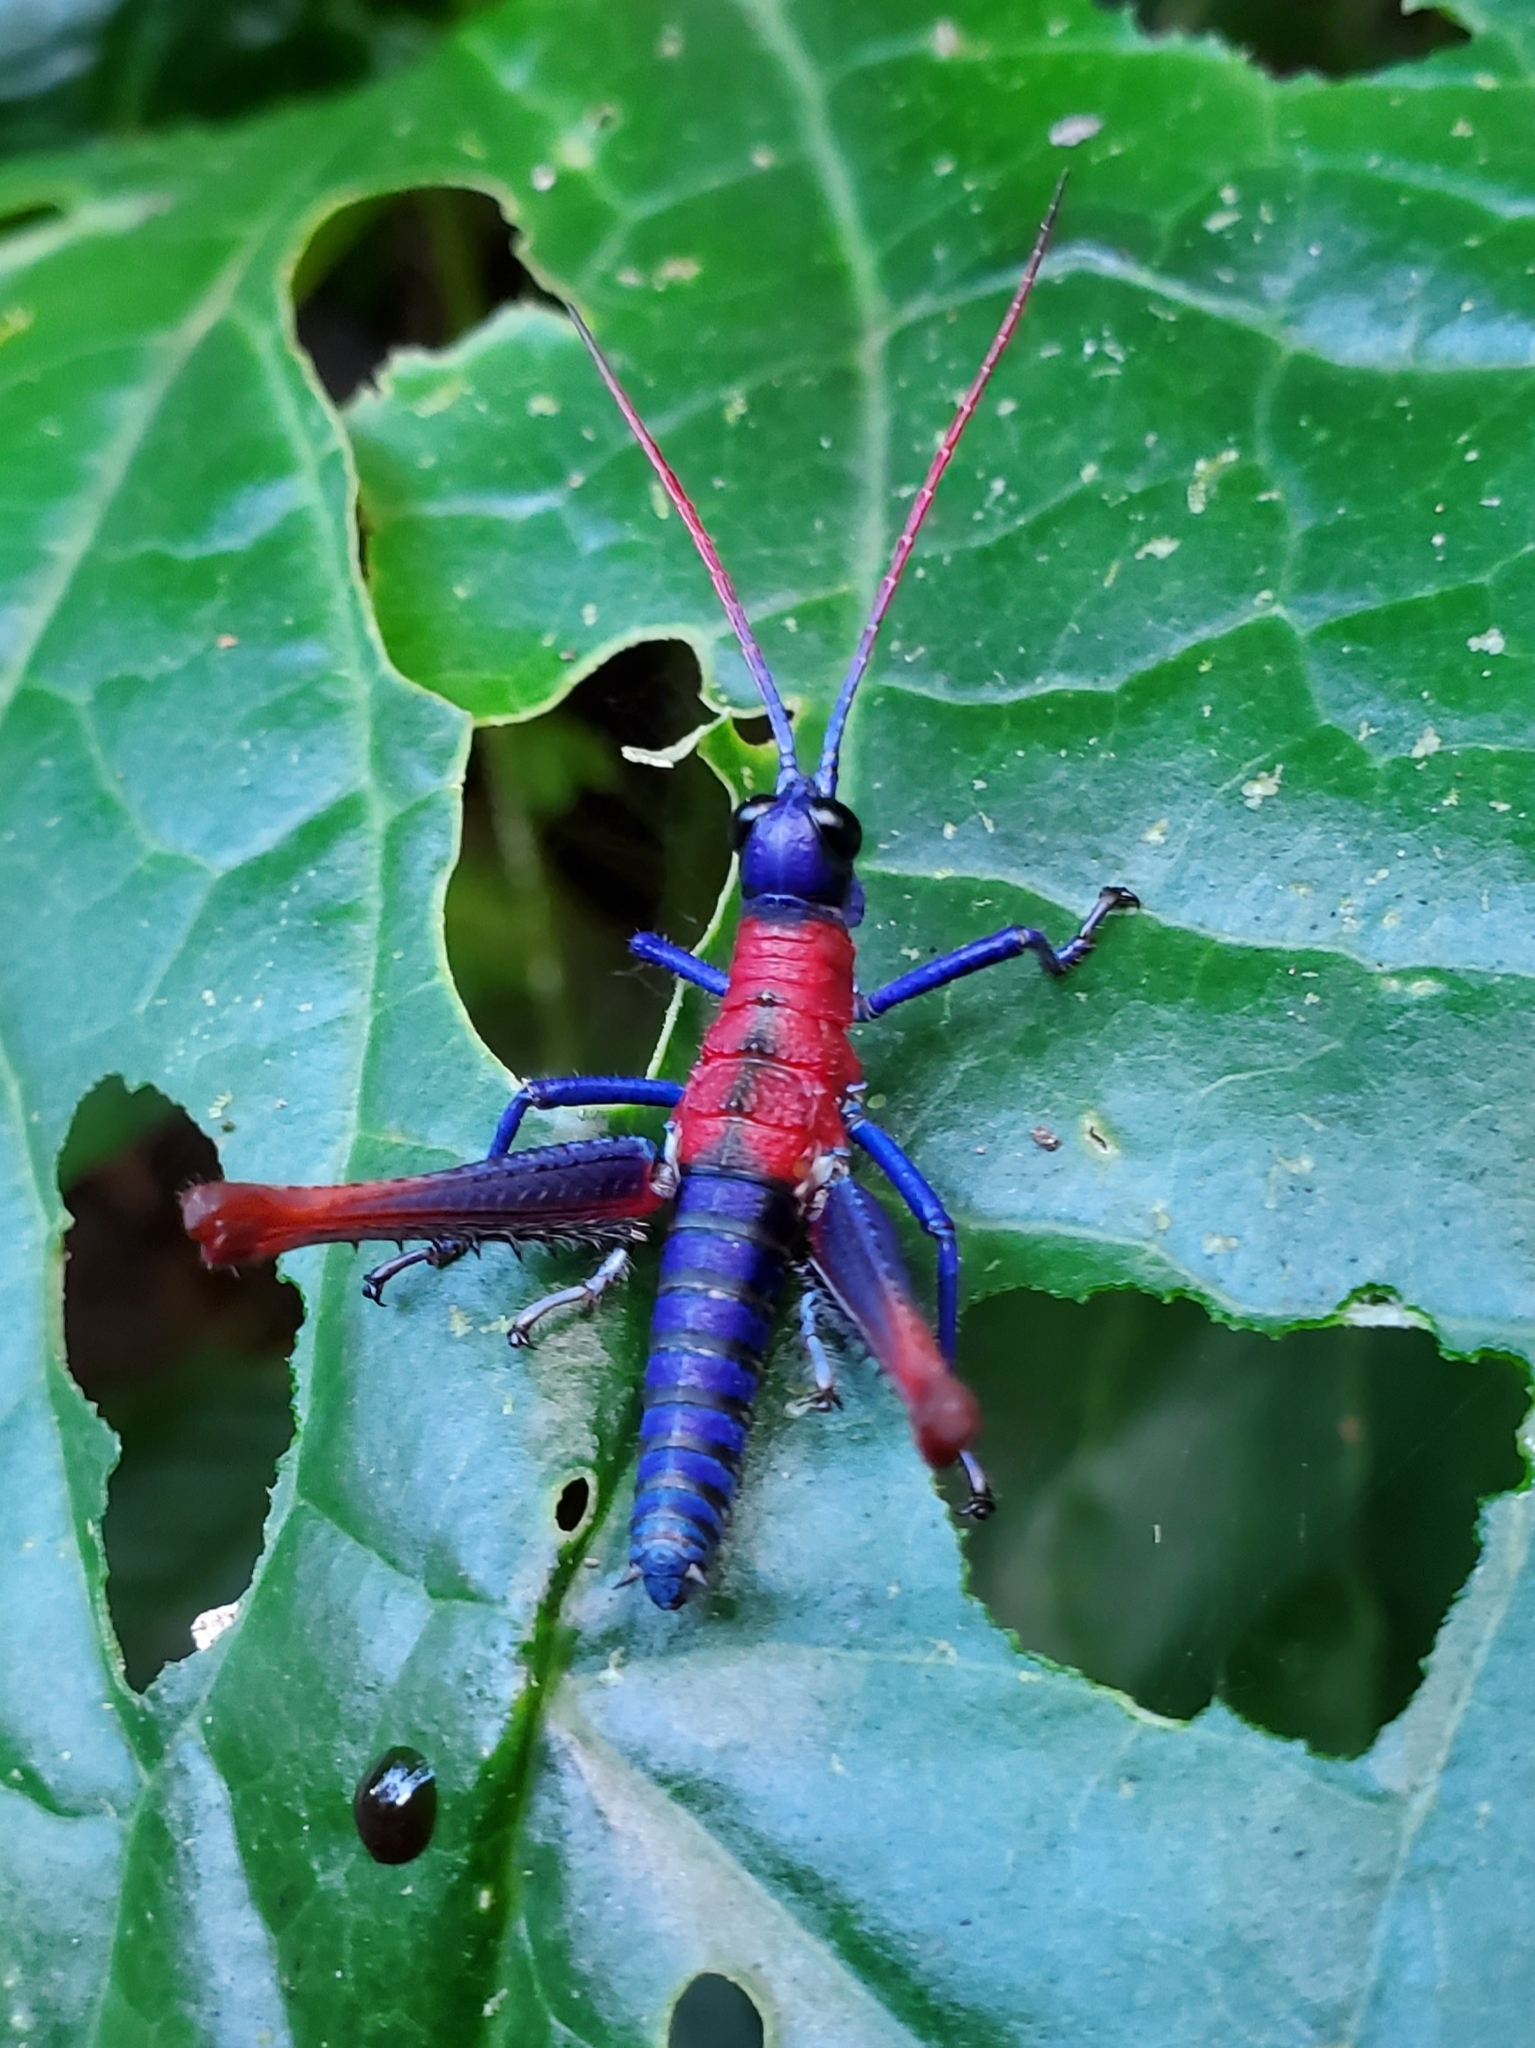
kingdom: Animalia
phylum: Arthropoda
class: Insecta
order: Orthoptera
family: Acrididae
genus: Opaon
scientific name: Opaon varicolor
